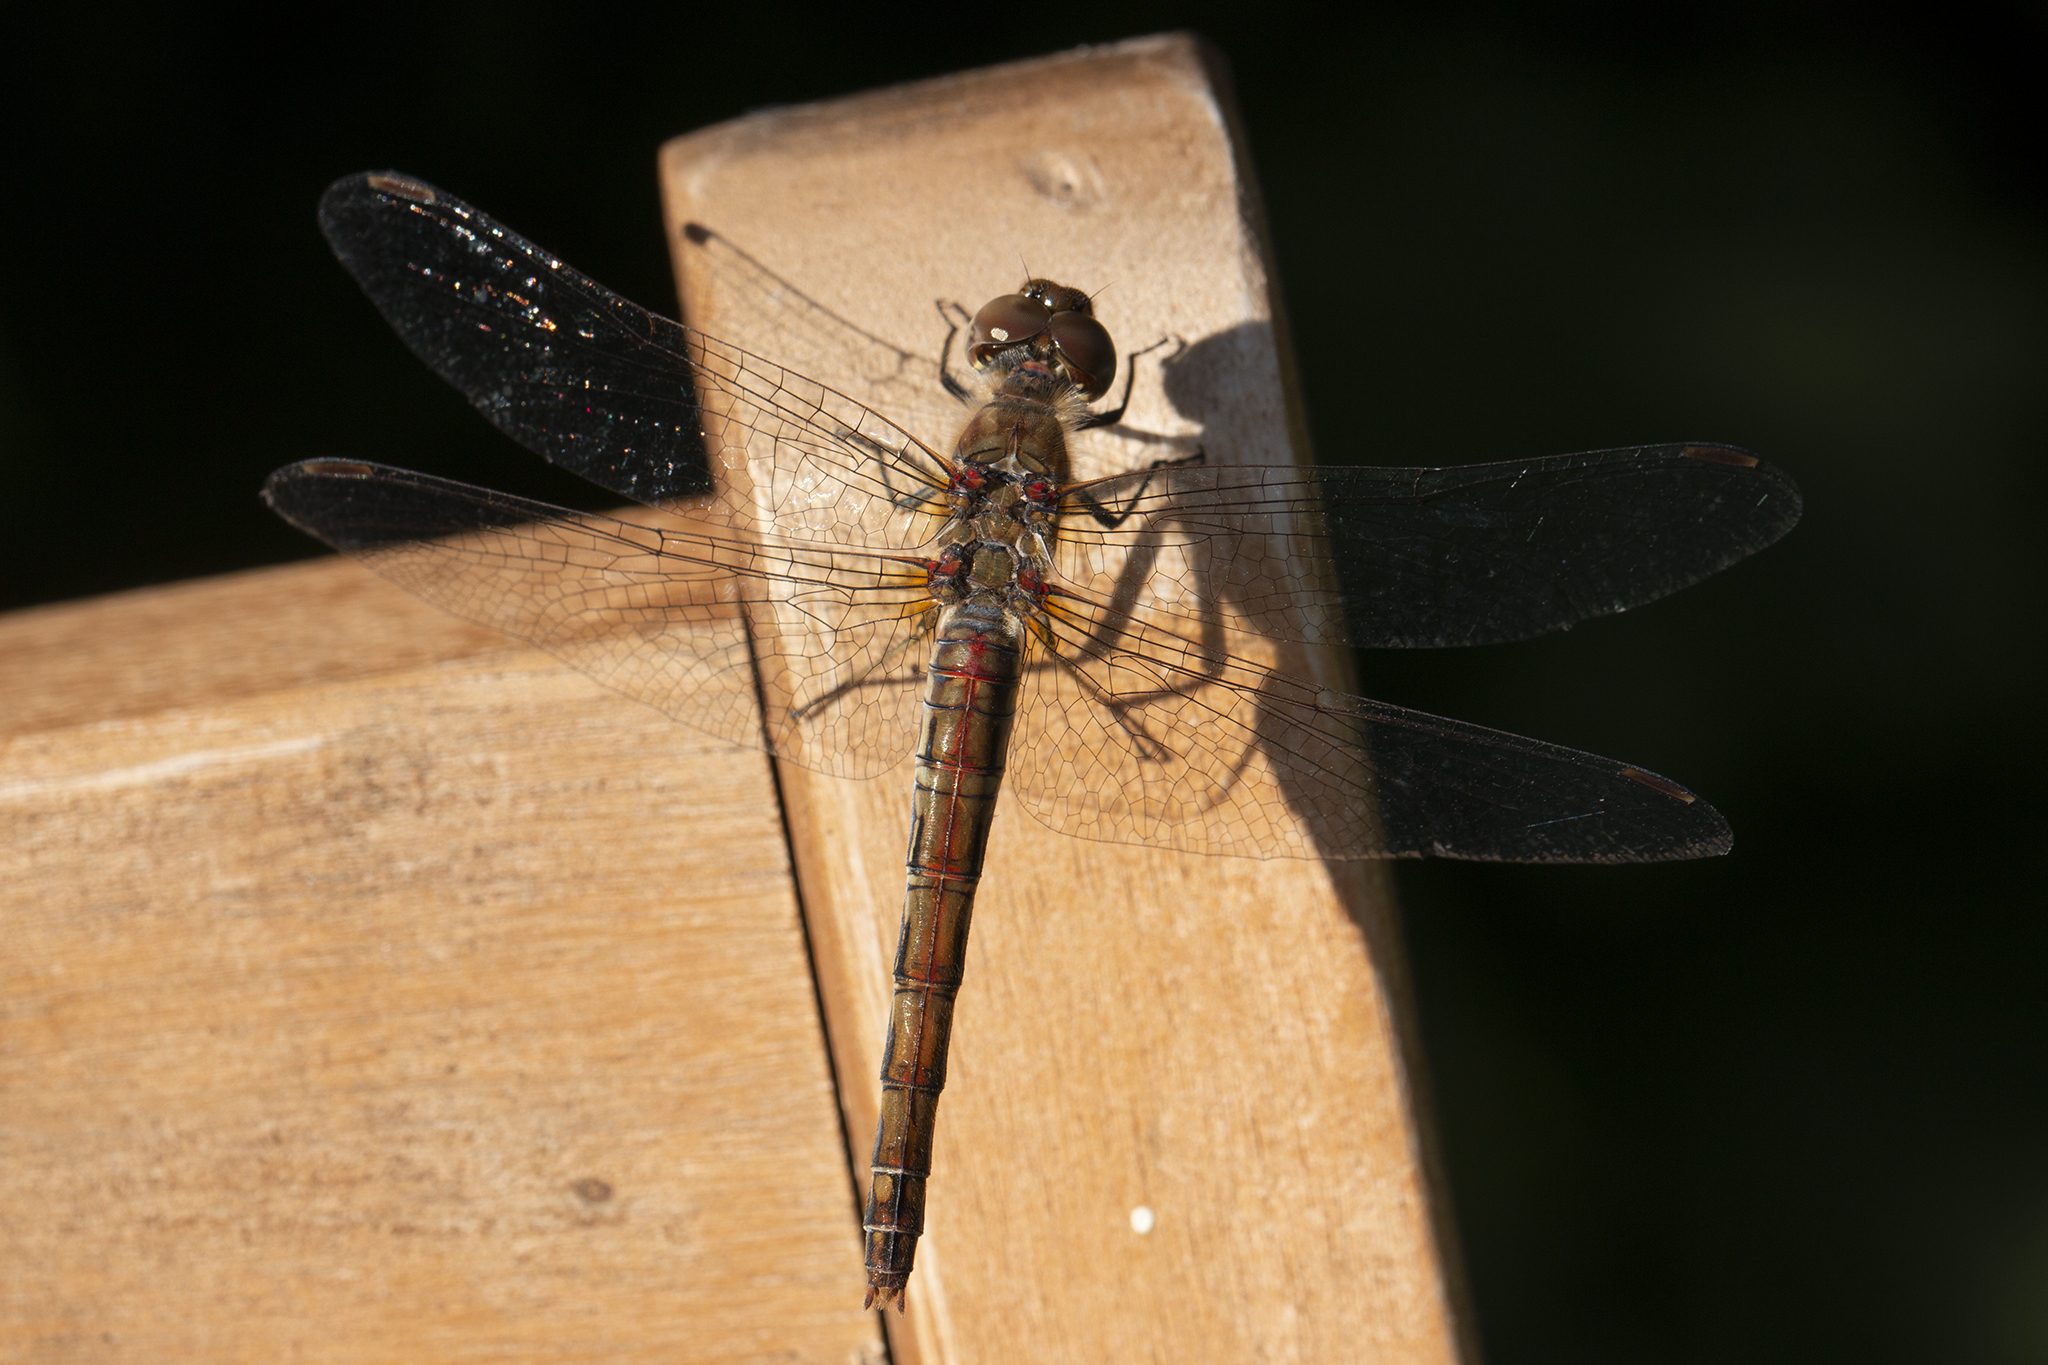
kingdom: Animalia
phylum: Arthropoda
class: Insecta
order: Odonata
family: Libellulidae
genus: Sympetrum
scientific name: Sympetrum striolatum
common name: Common darter
